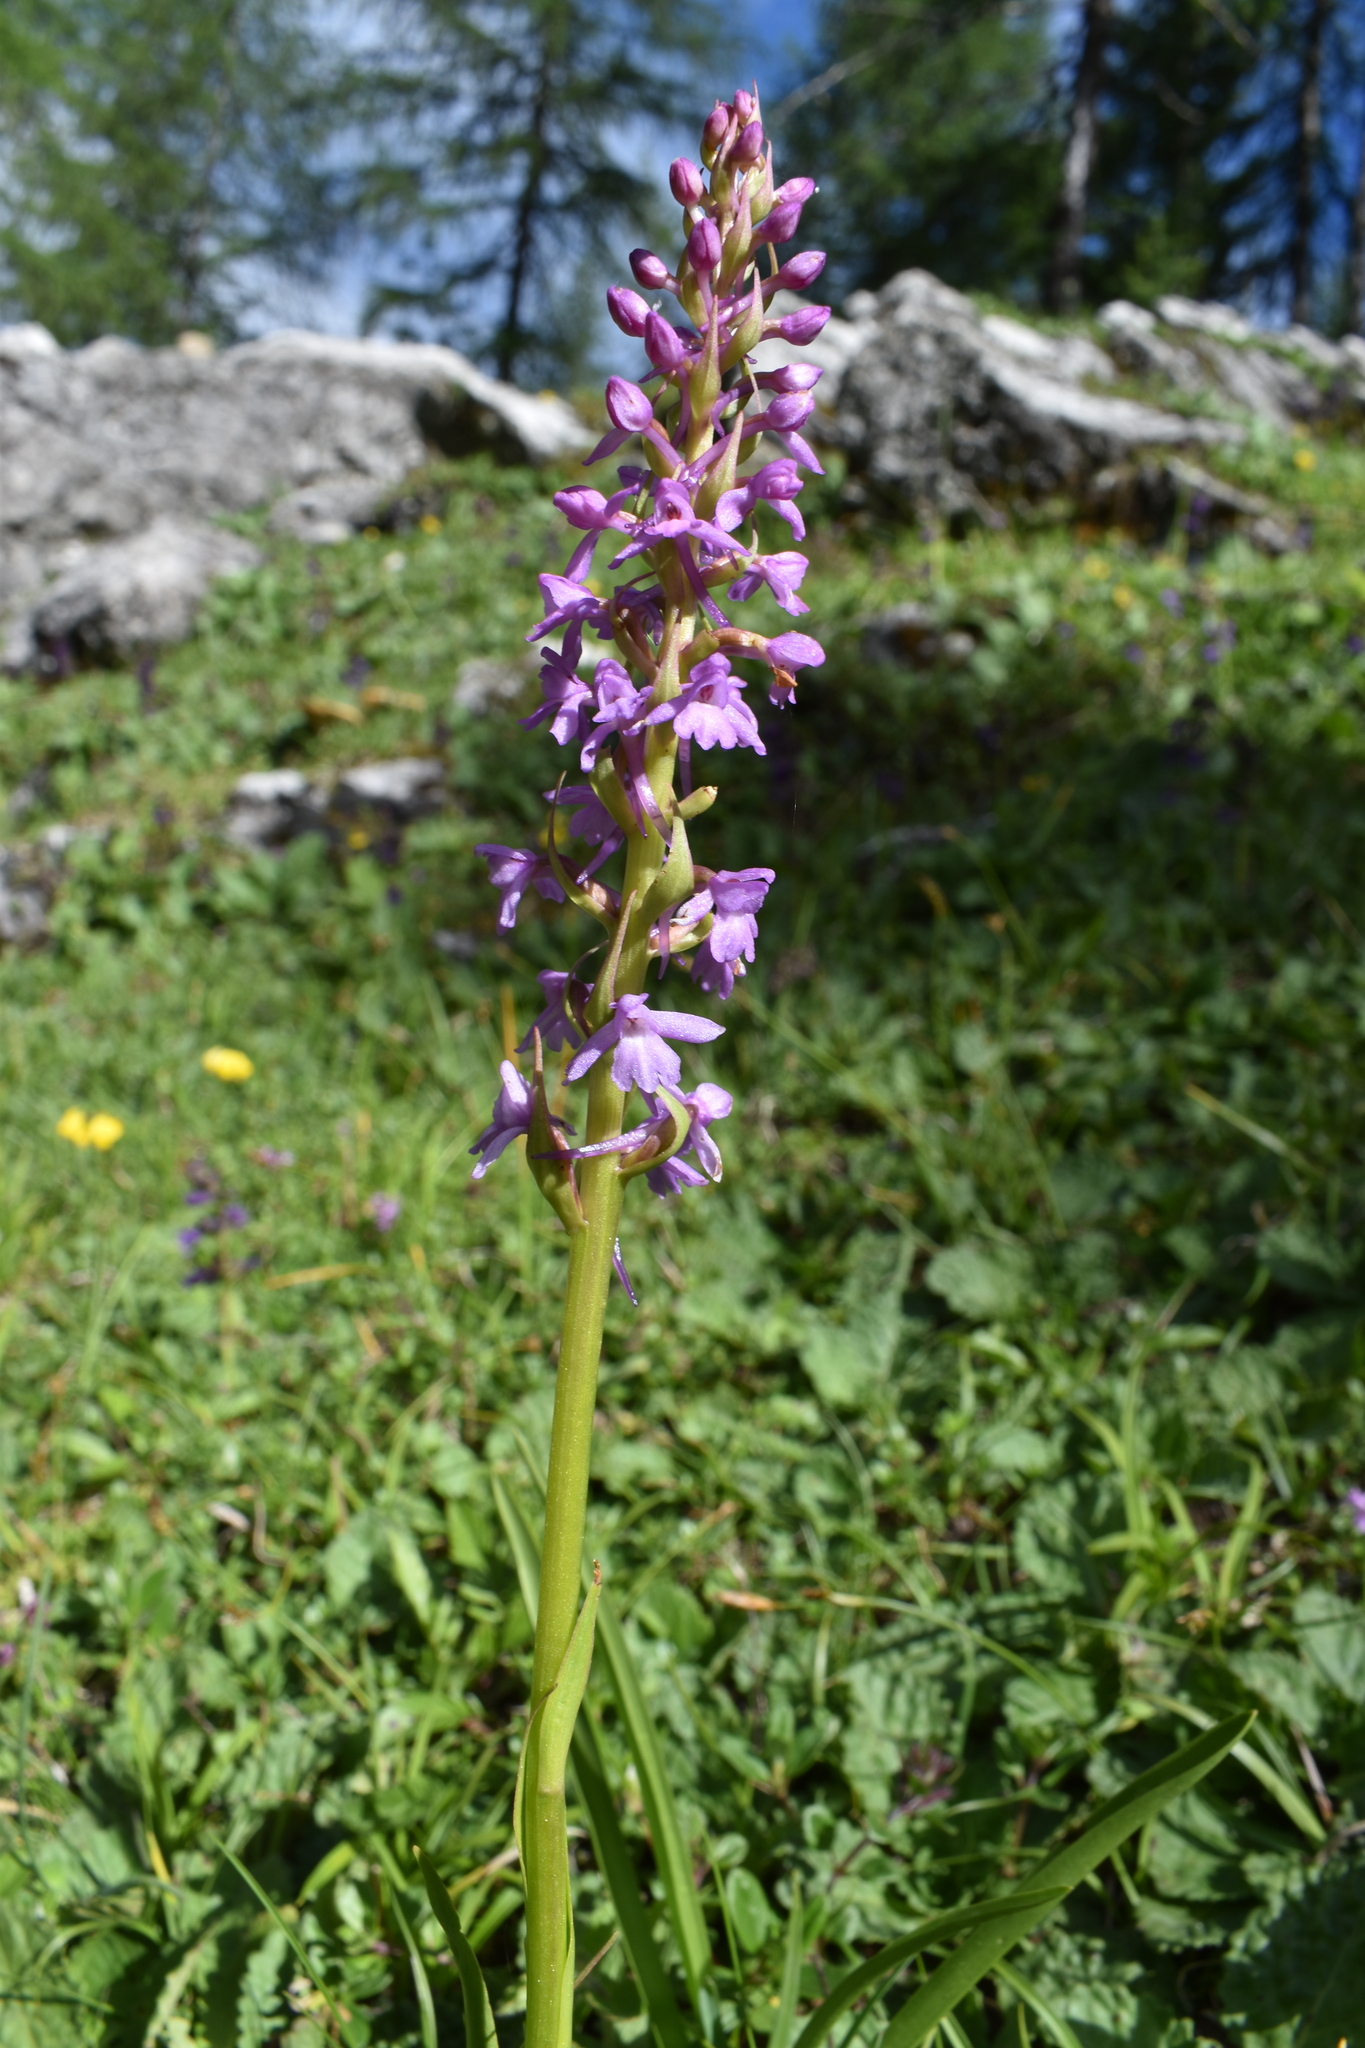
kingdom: Plantae
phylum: Tracheophyta
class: Liliopsida
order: Asparagales
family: Orchidaceae
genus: Gymnadenia
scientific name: Gymnadenia conopsea
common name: Fragrant orchid
